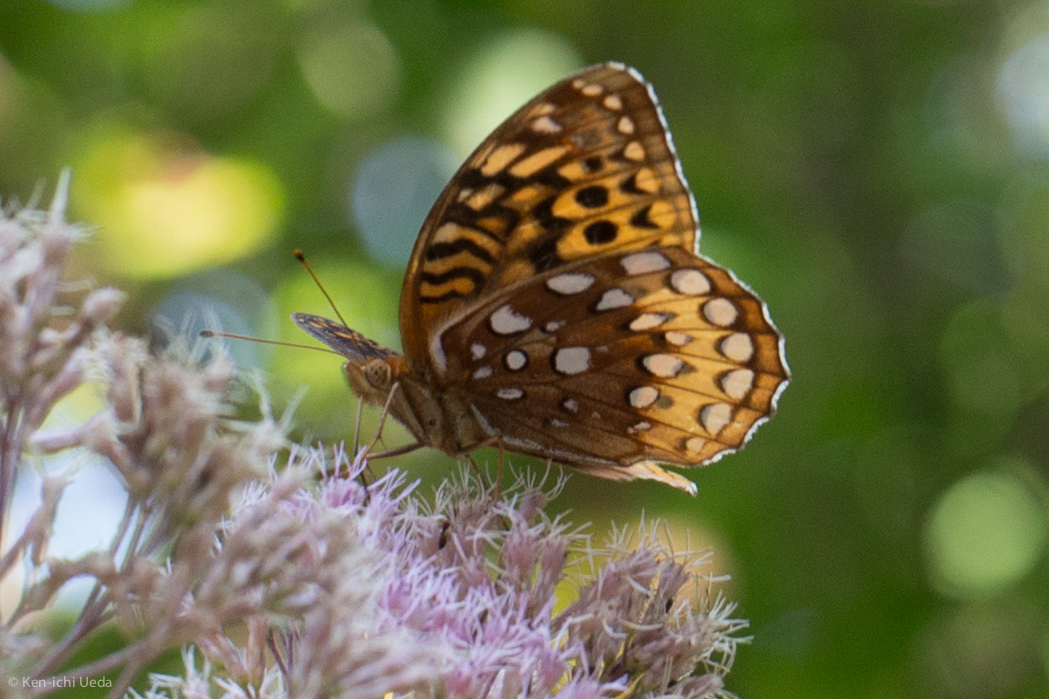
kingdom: Animalia
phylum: Arthropoda
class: Insecta
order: Lepidoptera
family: Nymphalidae
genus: Speyeria
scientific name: Speyeria cybele
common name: Great spangled fritillary
